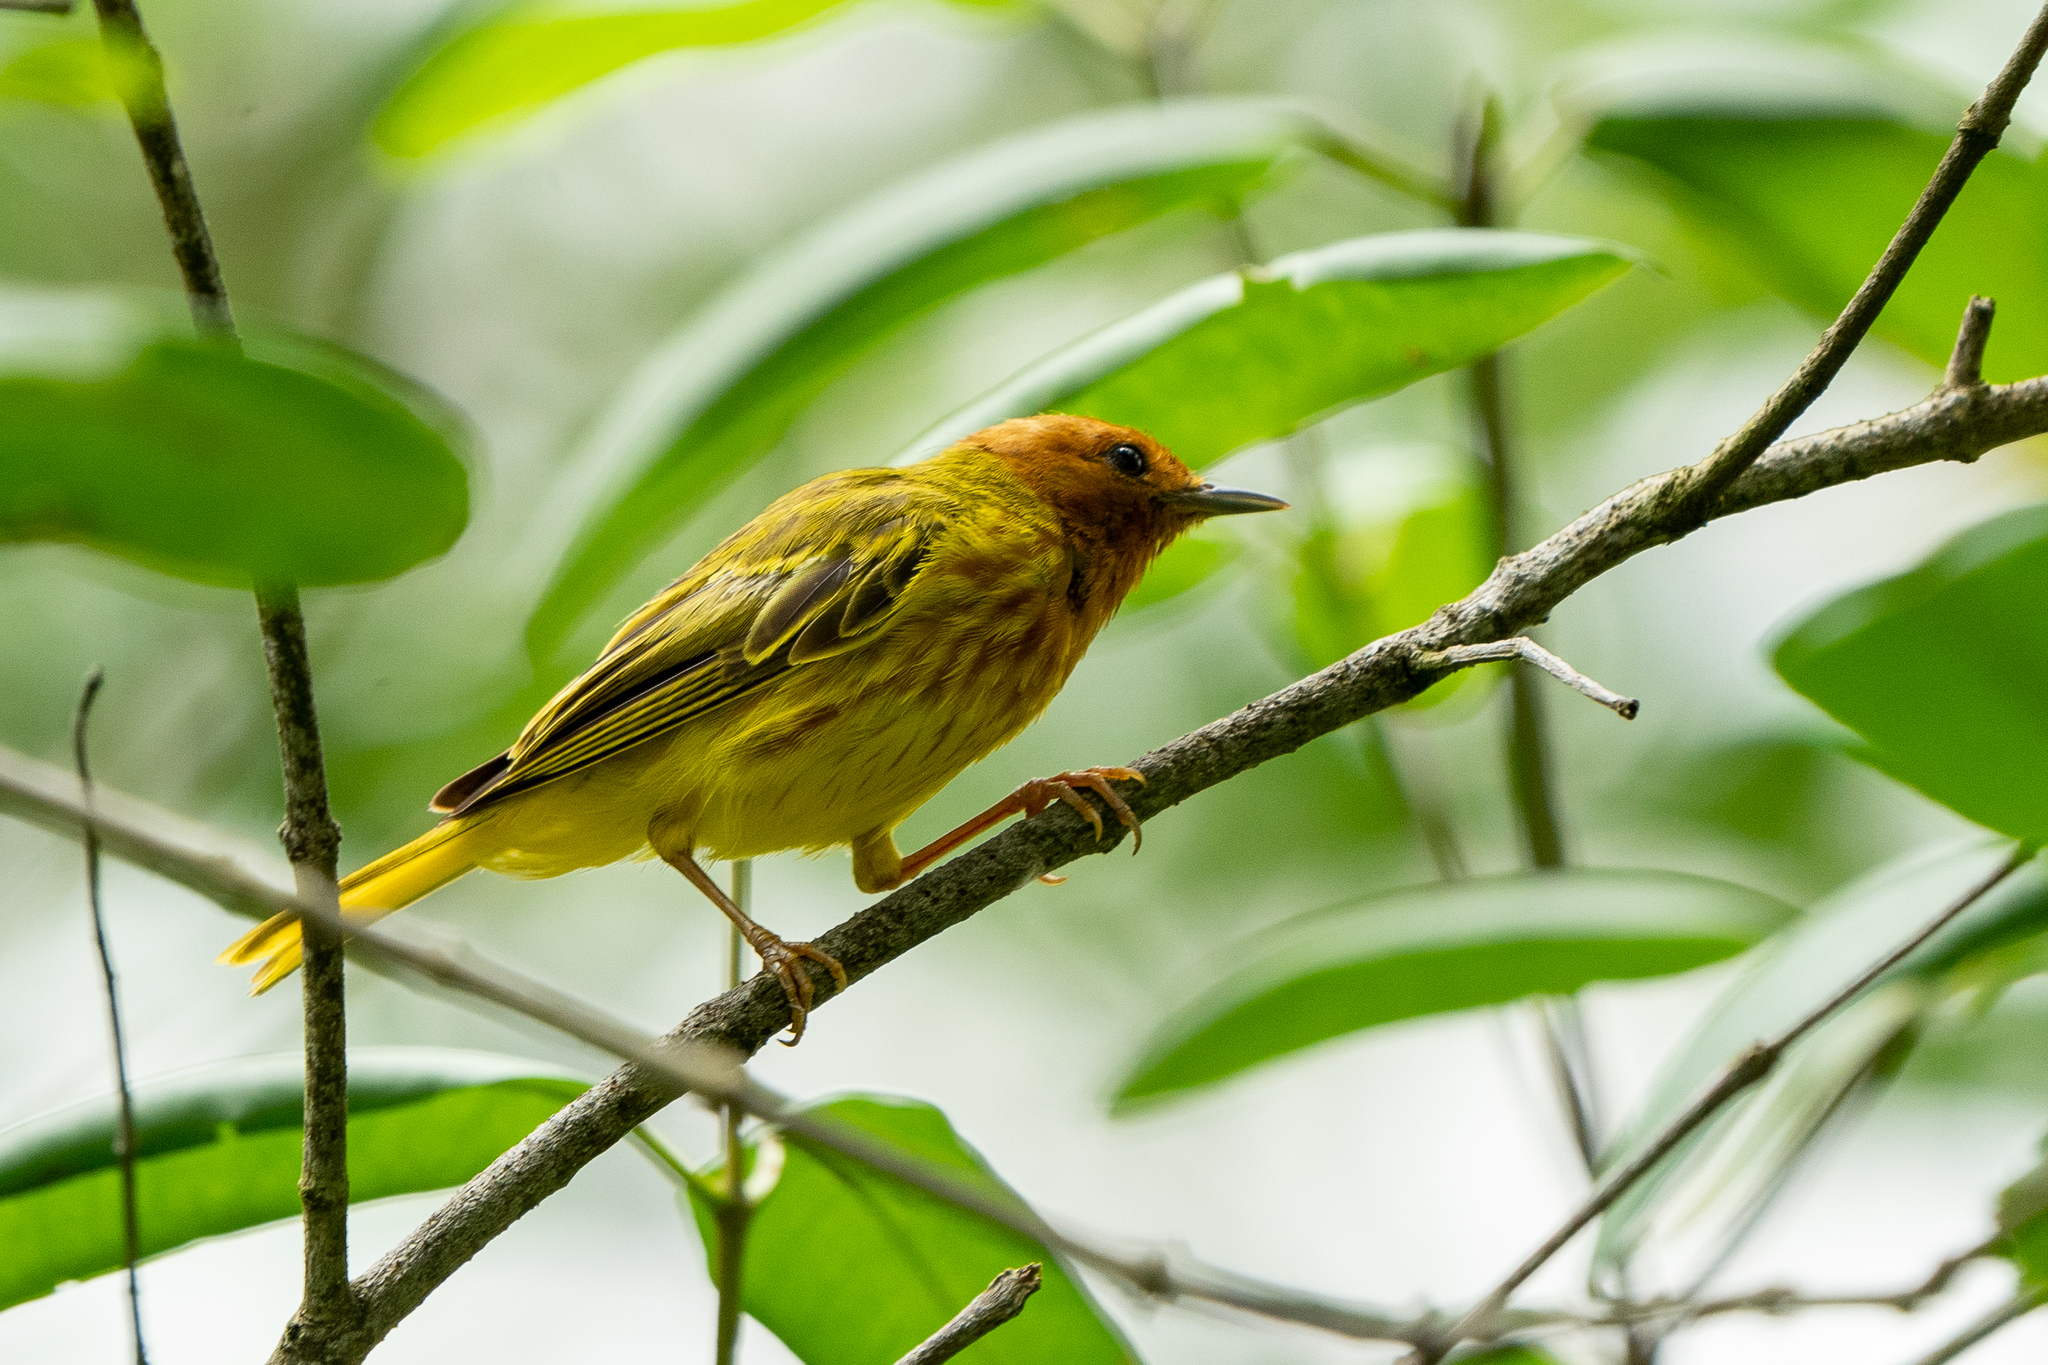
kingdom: Animalia
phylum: Chordata
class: Aves
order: Passeriformes
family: Parulidae
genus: Setophaga
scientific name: Setophaga petechia
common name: Yellow warbler
